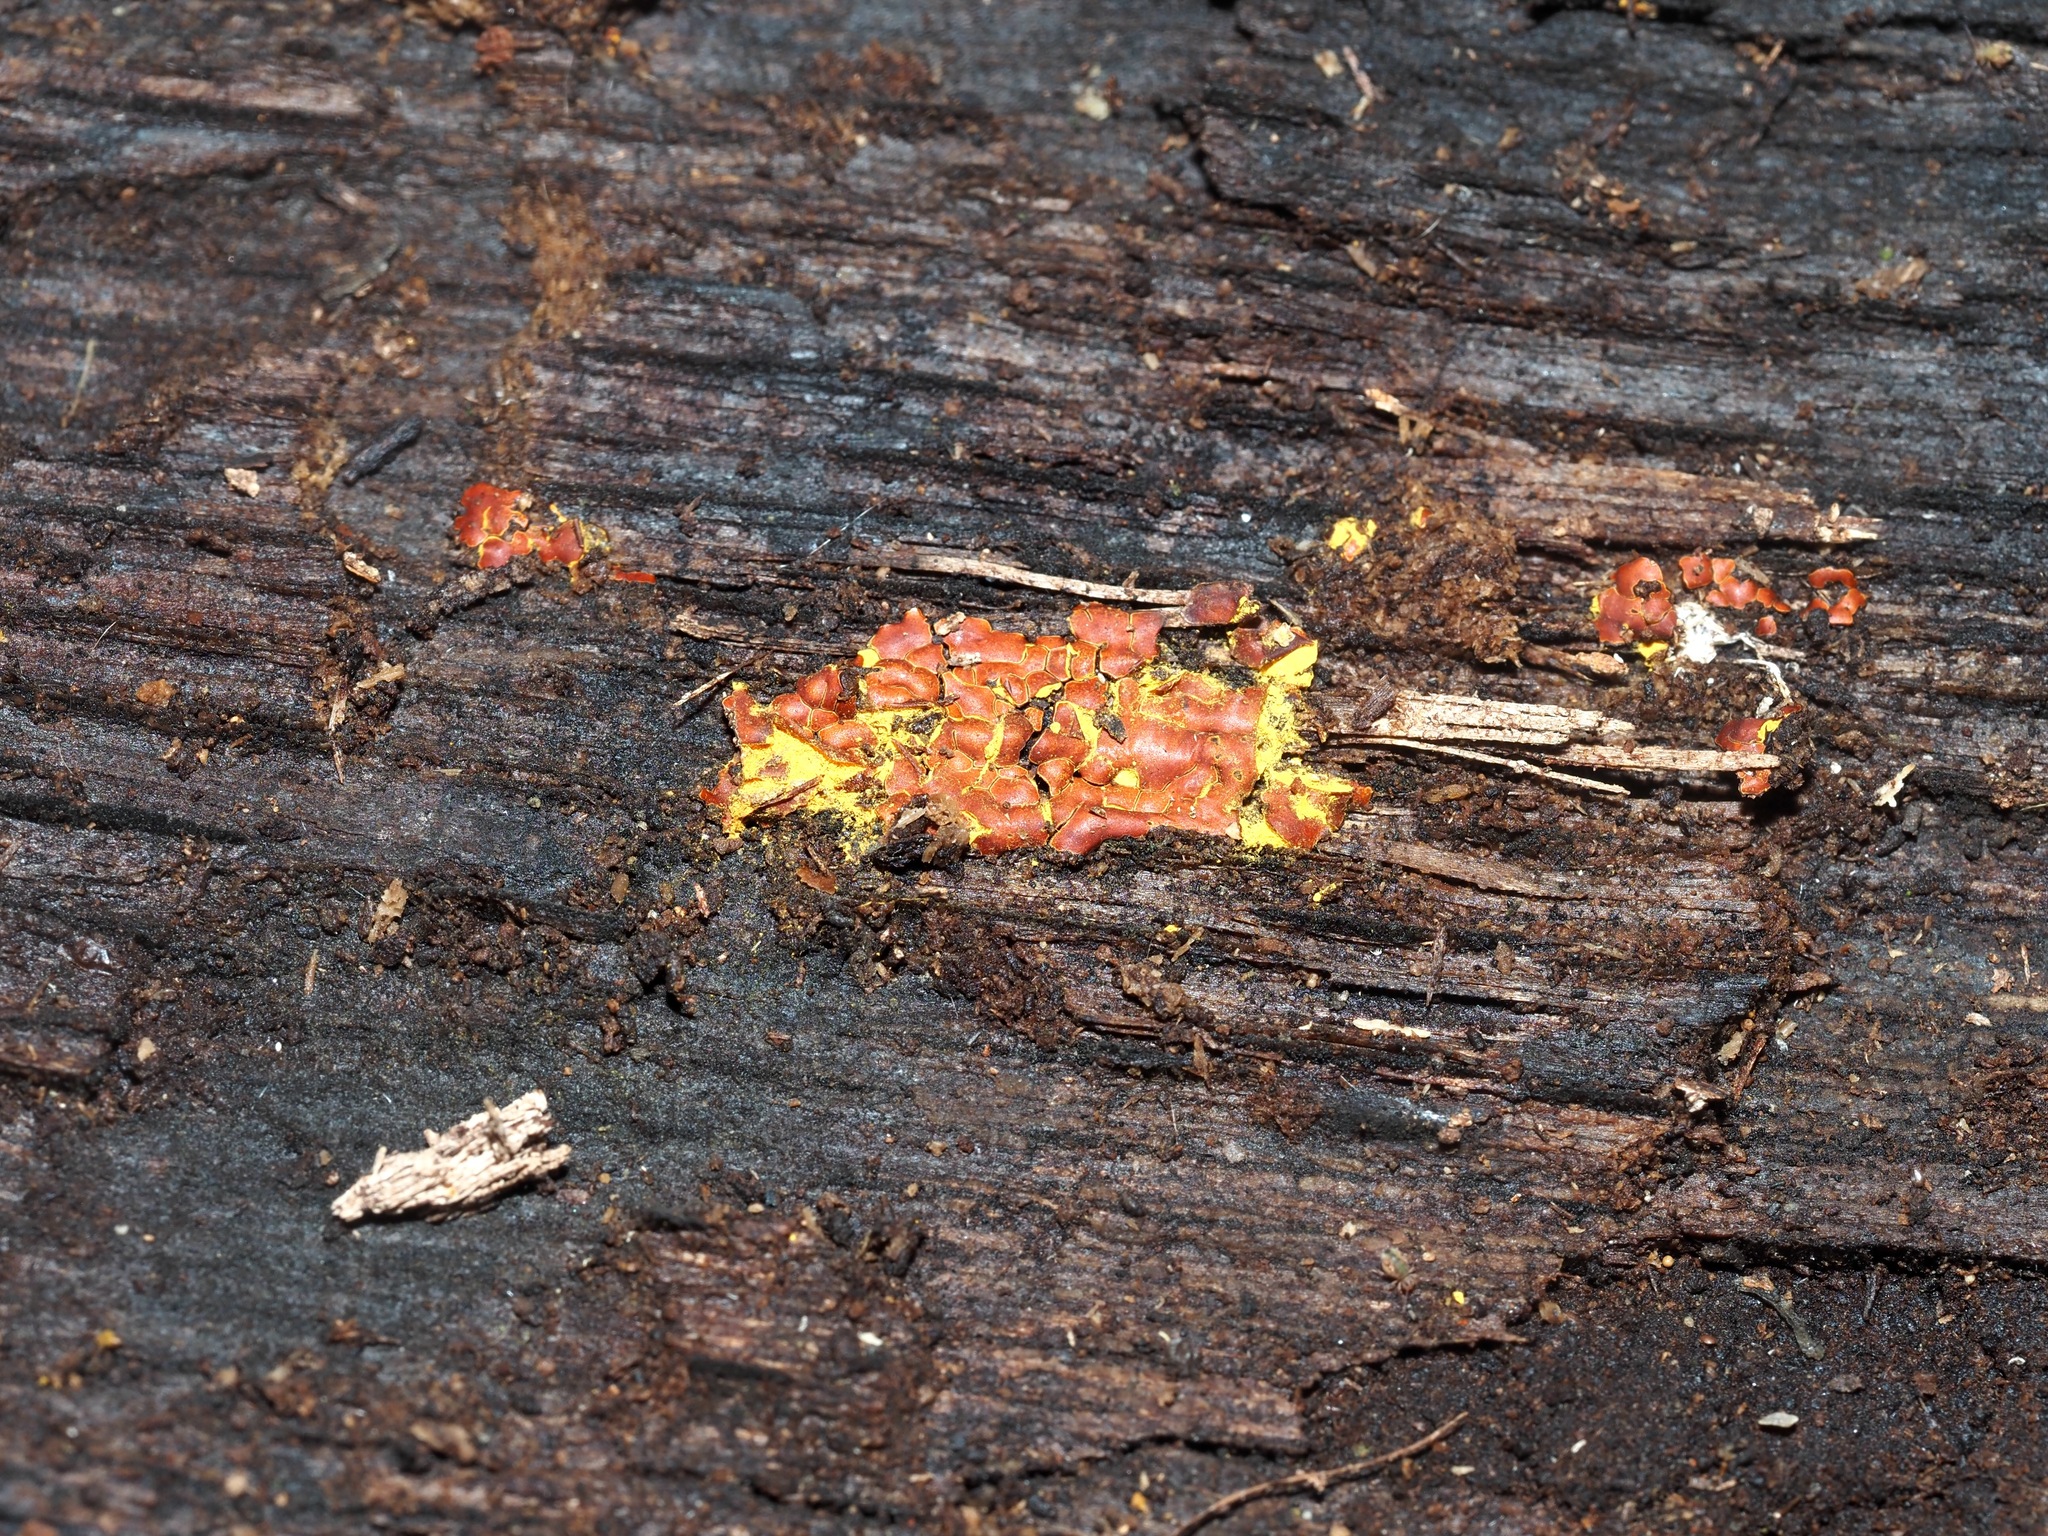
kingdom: Protozoa
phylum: Mycetozoa
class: Myxomycetes
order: Trichiales
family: Trichiaceae
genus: Perichaena
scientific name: Perichaena depressa
